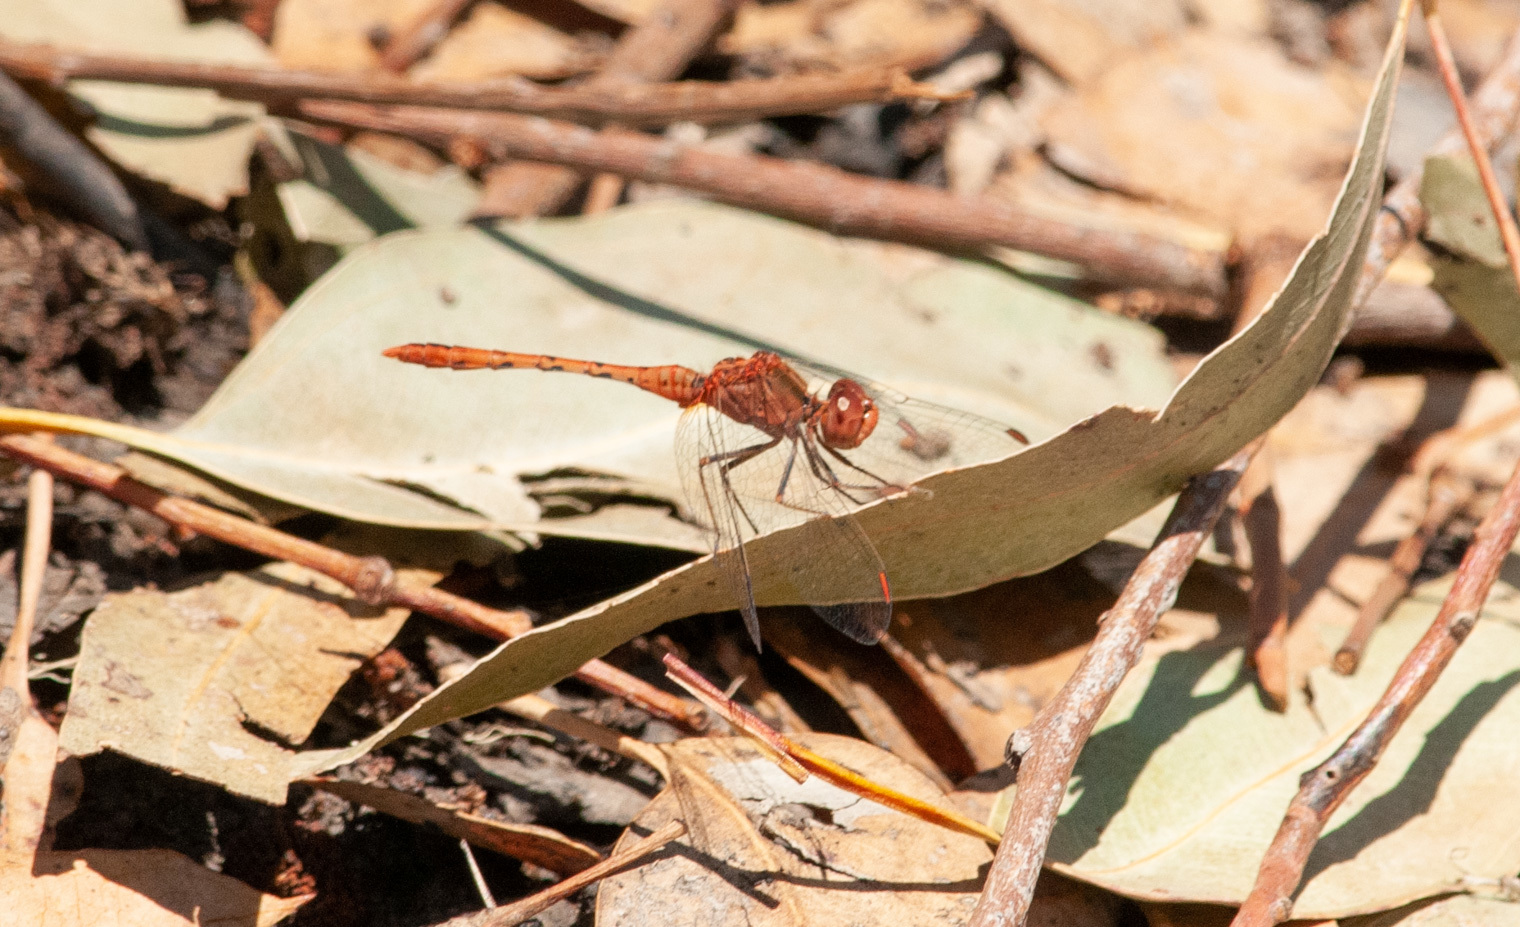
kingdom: Animalia
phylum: Arthropoda
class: Insecta
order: Odonata
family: Libellulidae
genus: Diplacodes
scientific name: Diplacodes bipunctata
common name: Red percher dragonfly
